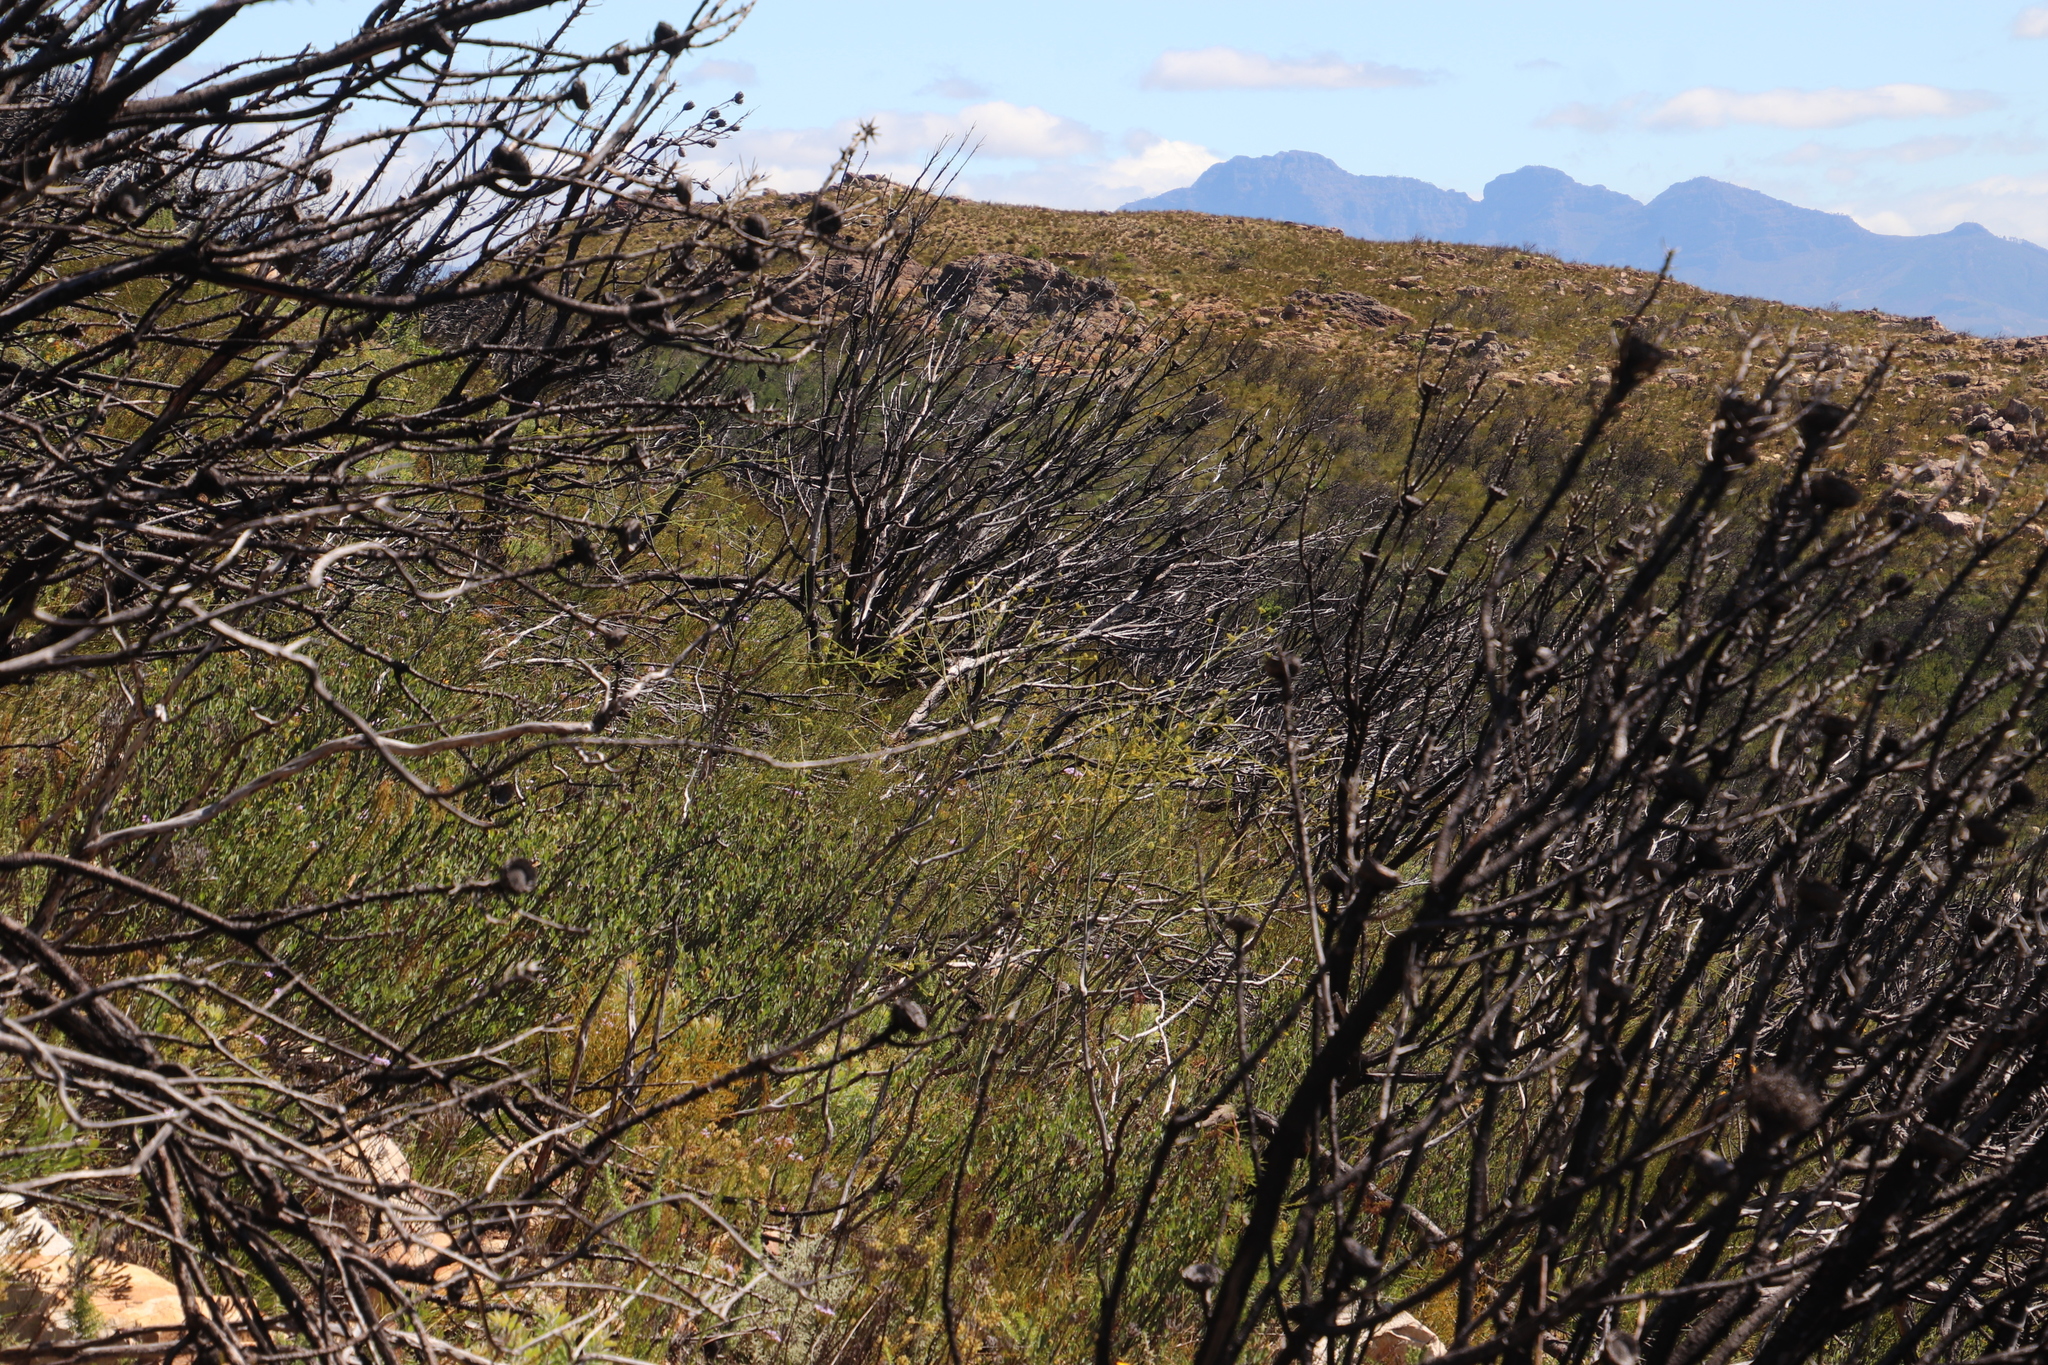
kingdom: Plantae
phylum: Tracheophyta
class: Magnoliopsida
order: Santalales
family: Thesiaceae
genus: Thesium
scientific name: Thesium strictum
